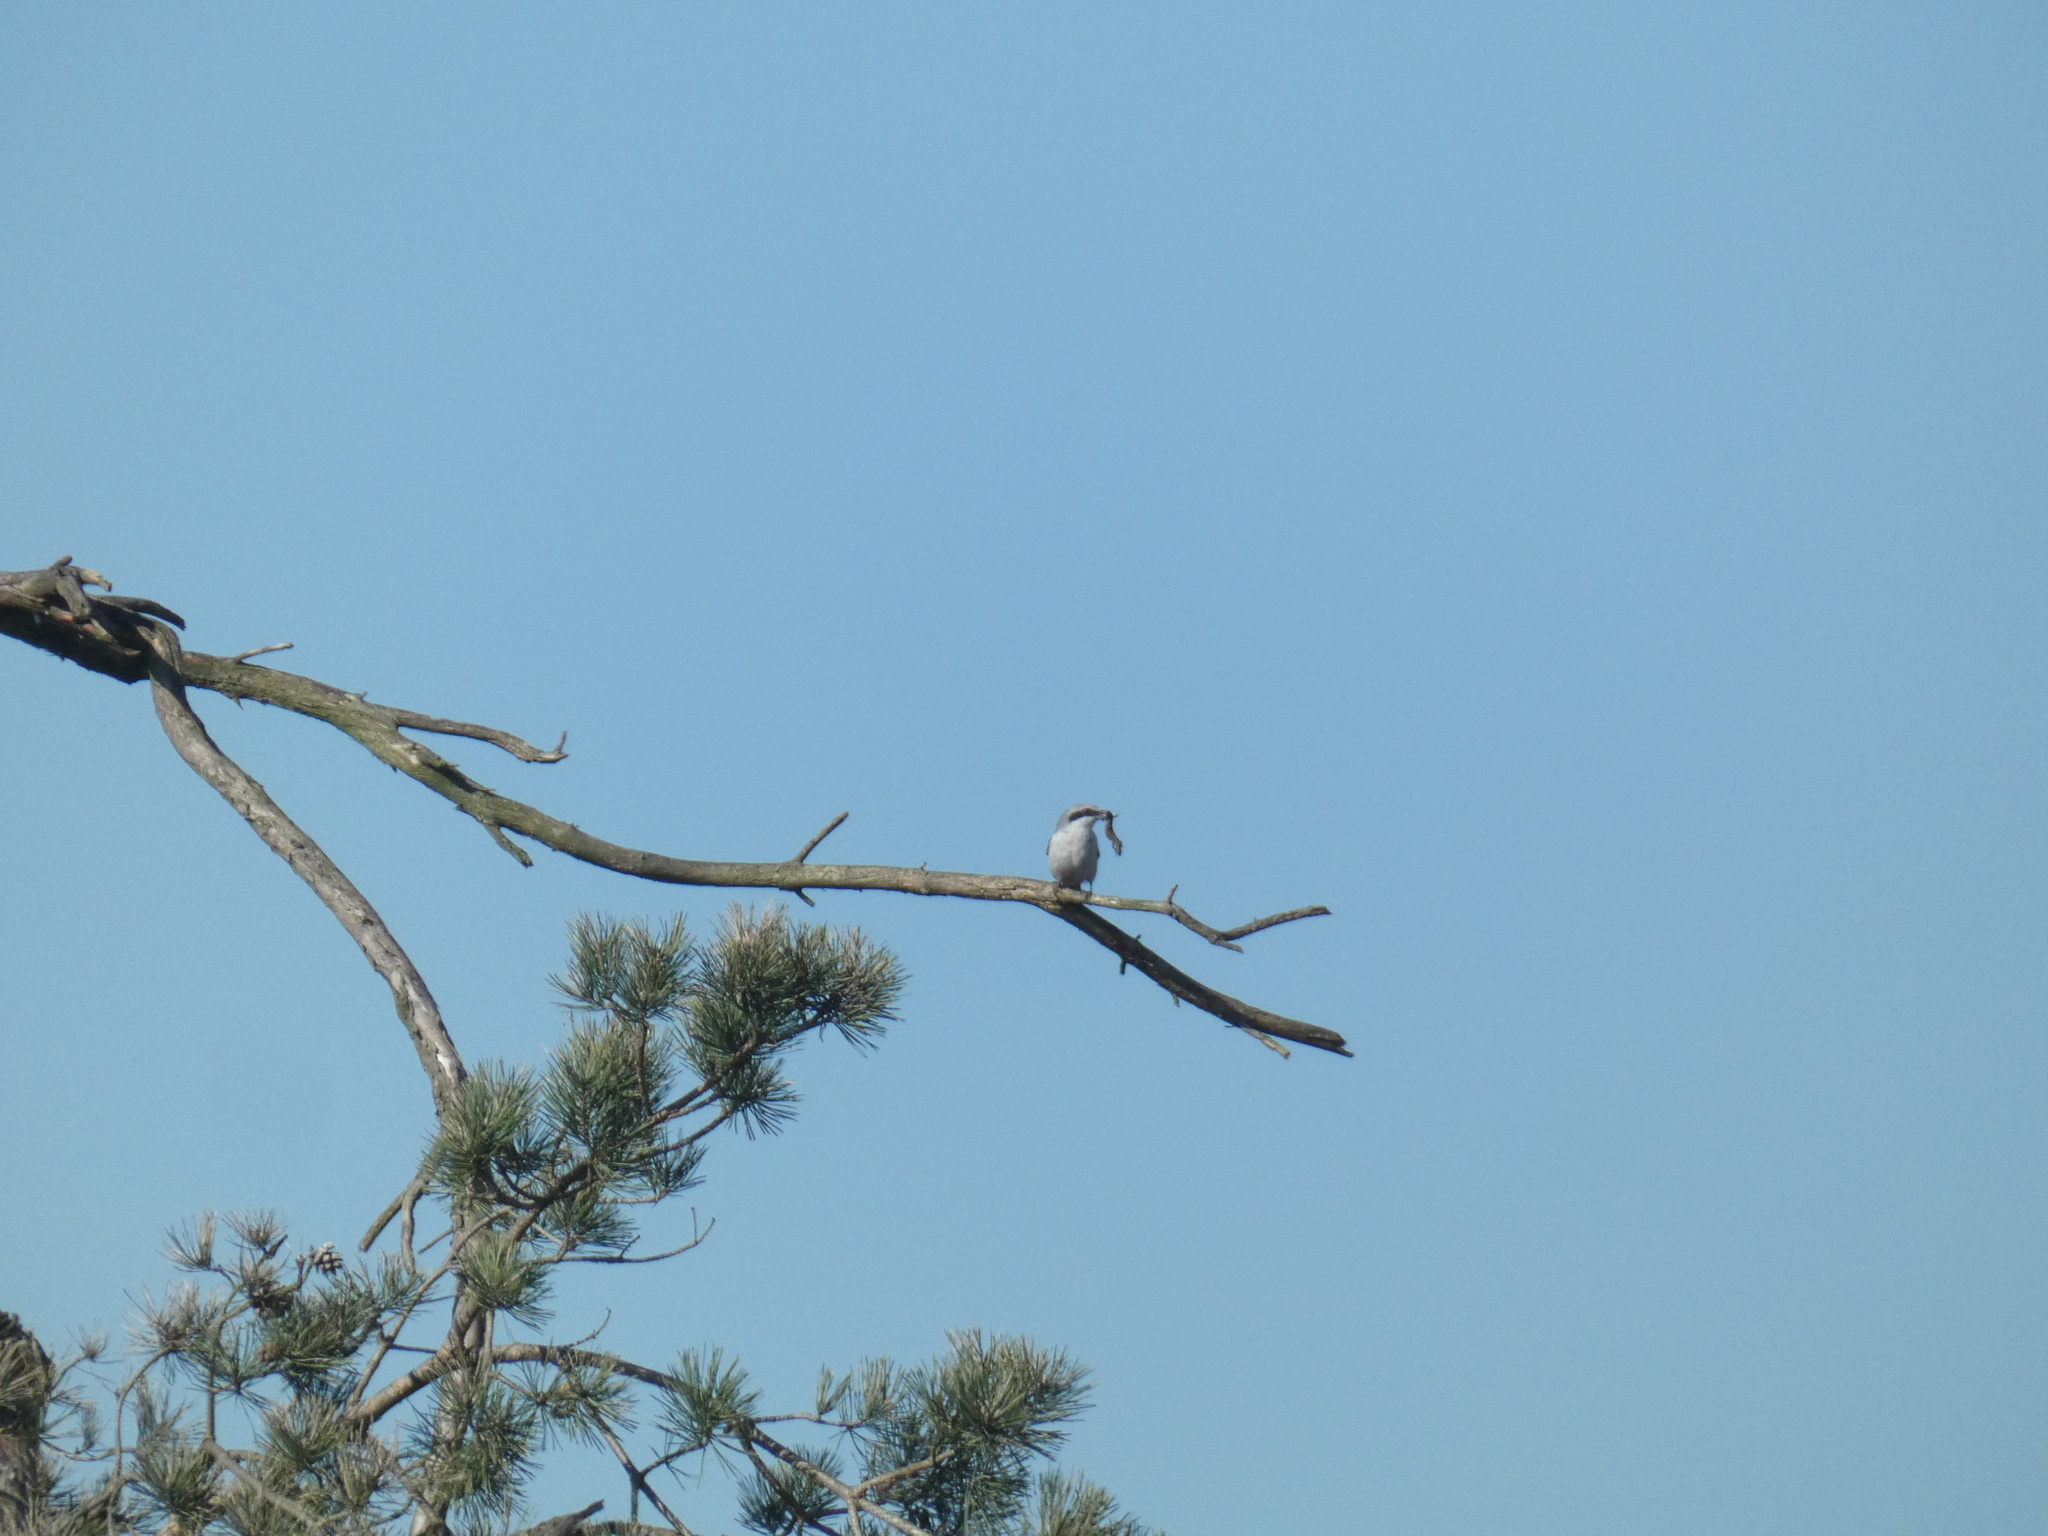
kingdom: Animalia
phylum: Chordata
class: Aves
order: Passeriformes
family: Laniidae
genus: Lanius
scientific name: Lanius excubitor
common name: Great grey shrike
